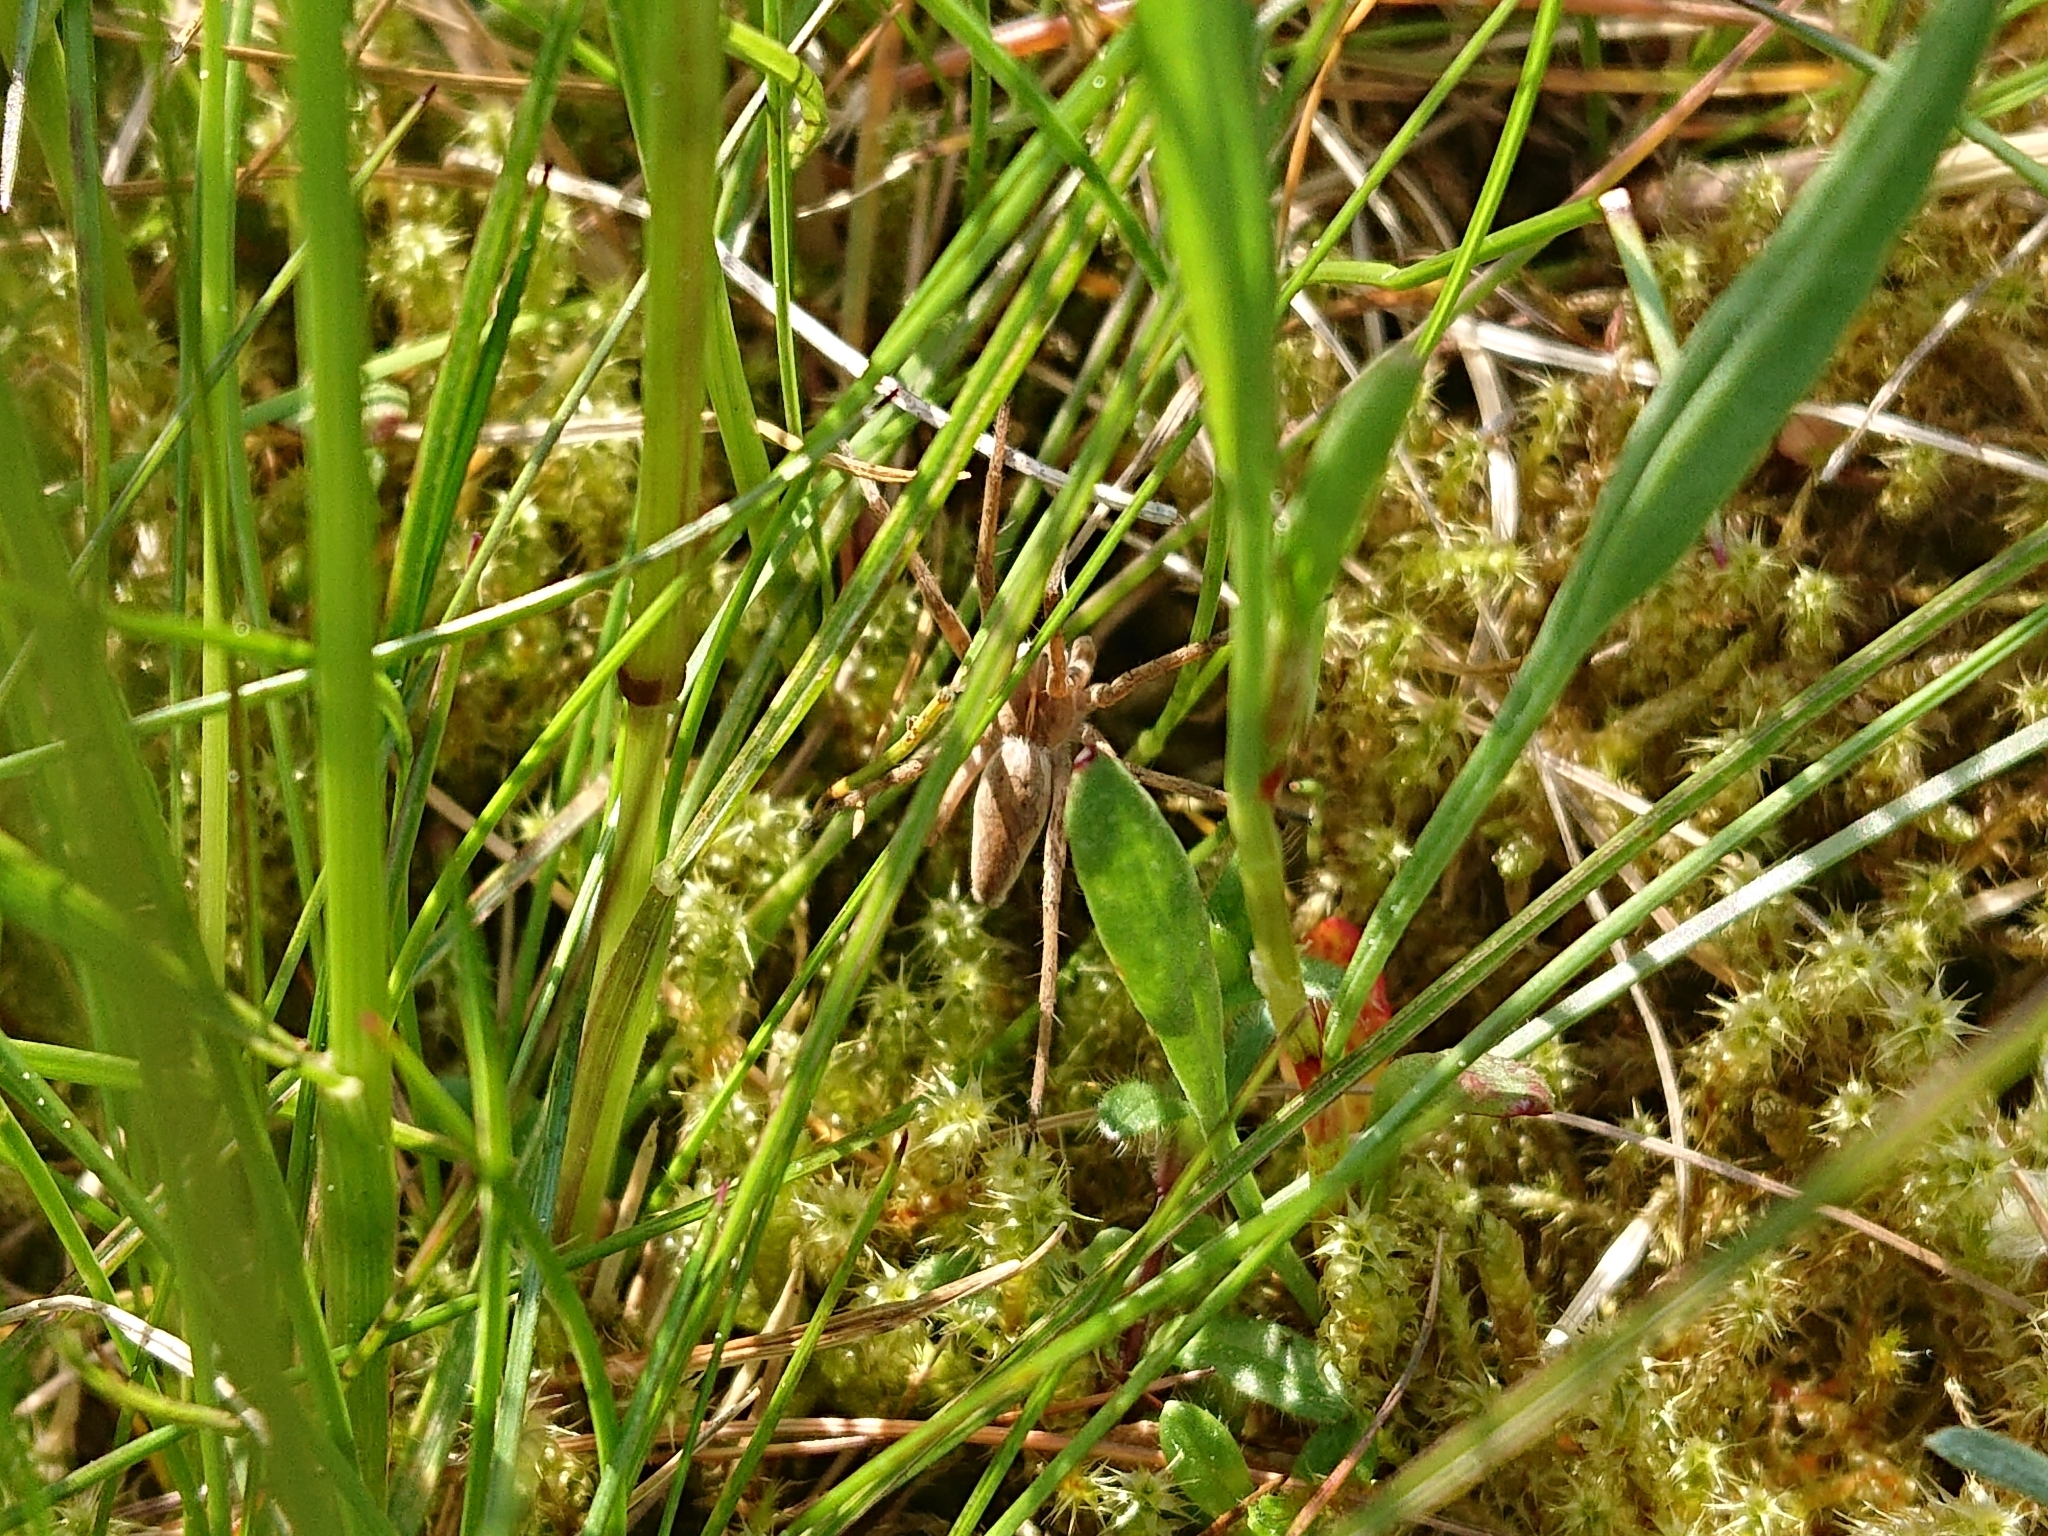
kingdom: Animalia
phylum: Arthropoda
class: Arachnida
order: Araneae
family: Pisauridae
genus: Pisaura
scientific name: Pisaura mirabilis
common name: Tent spider
